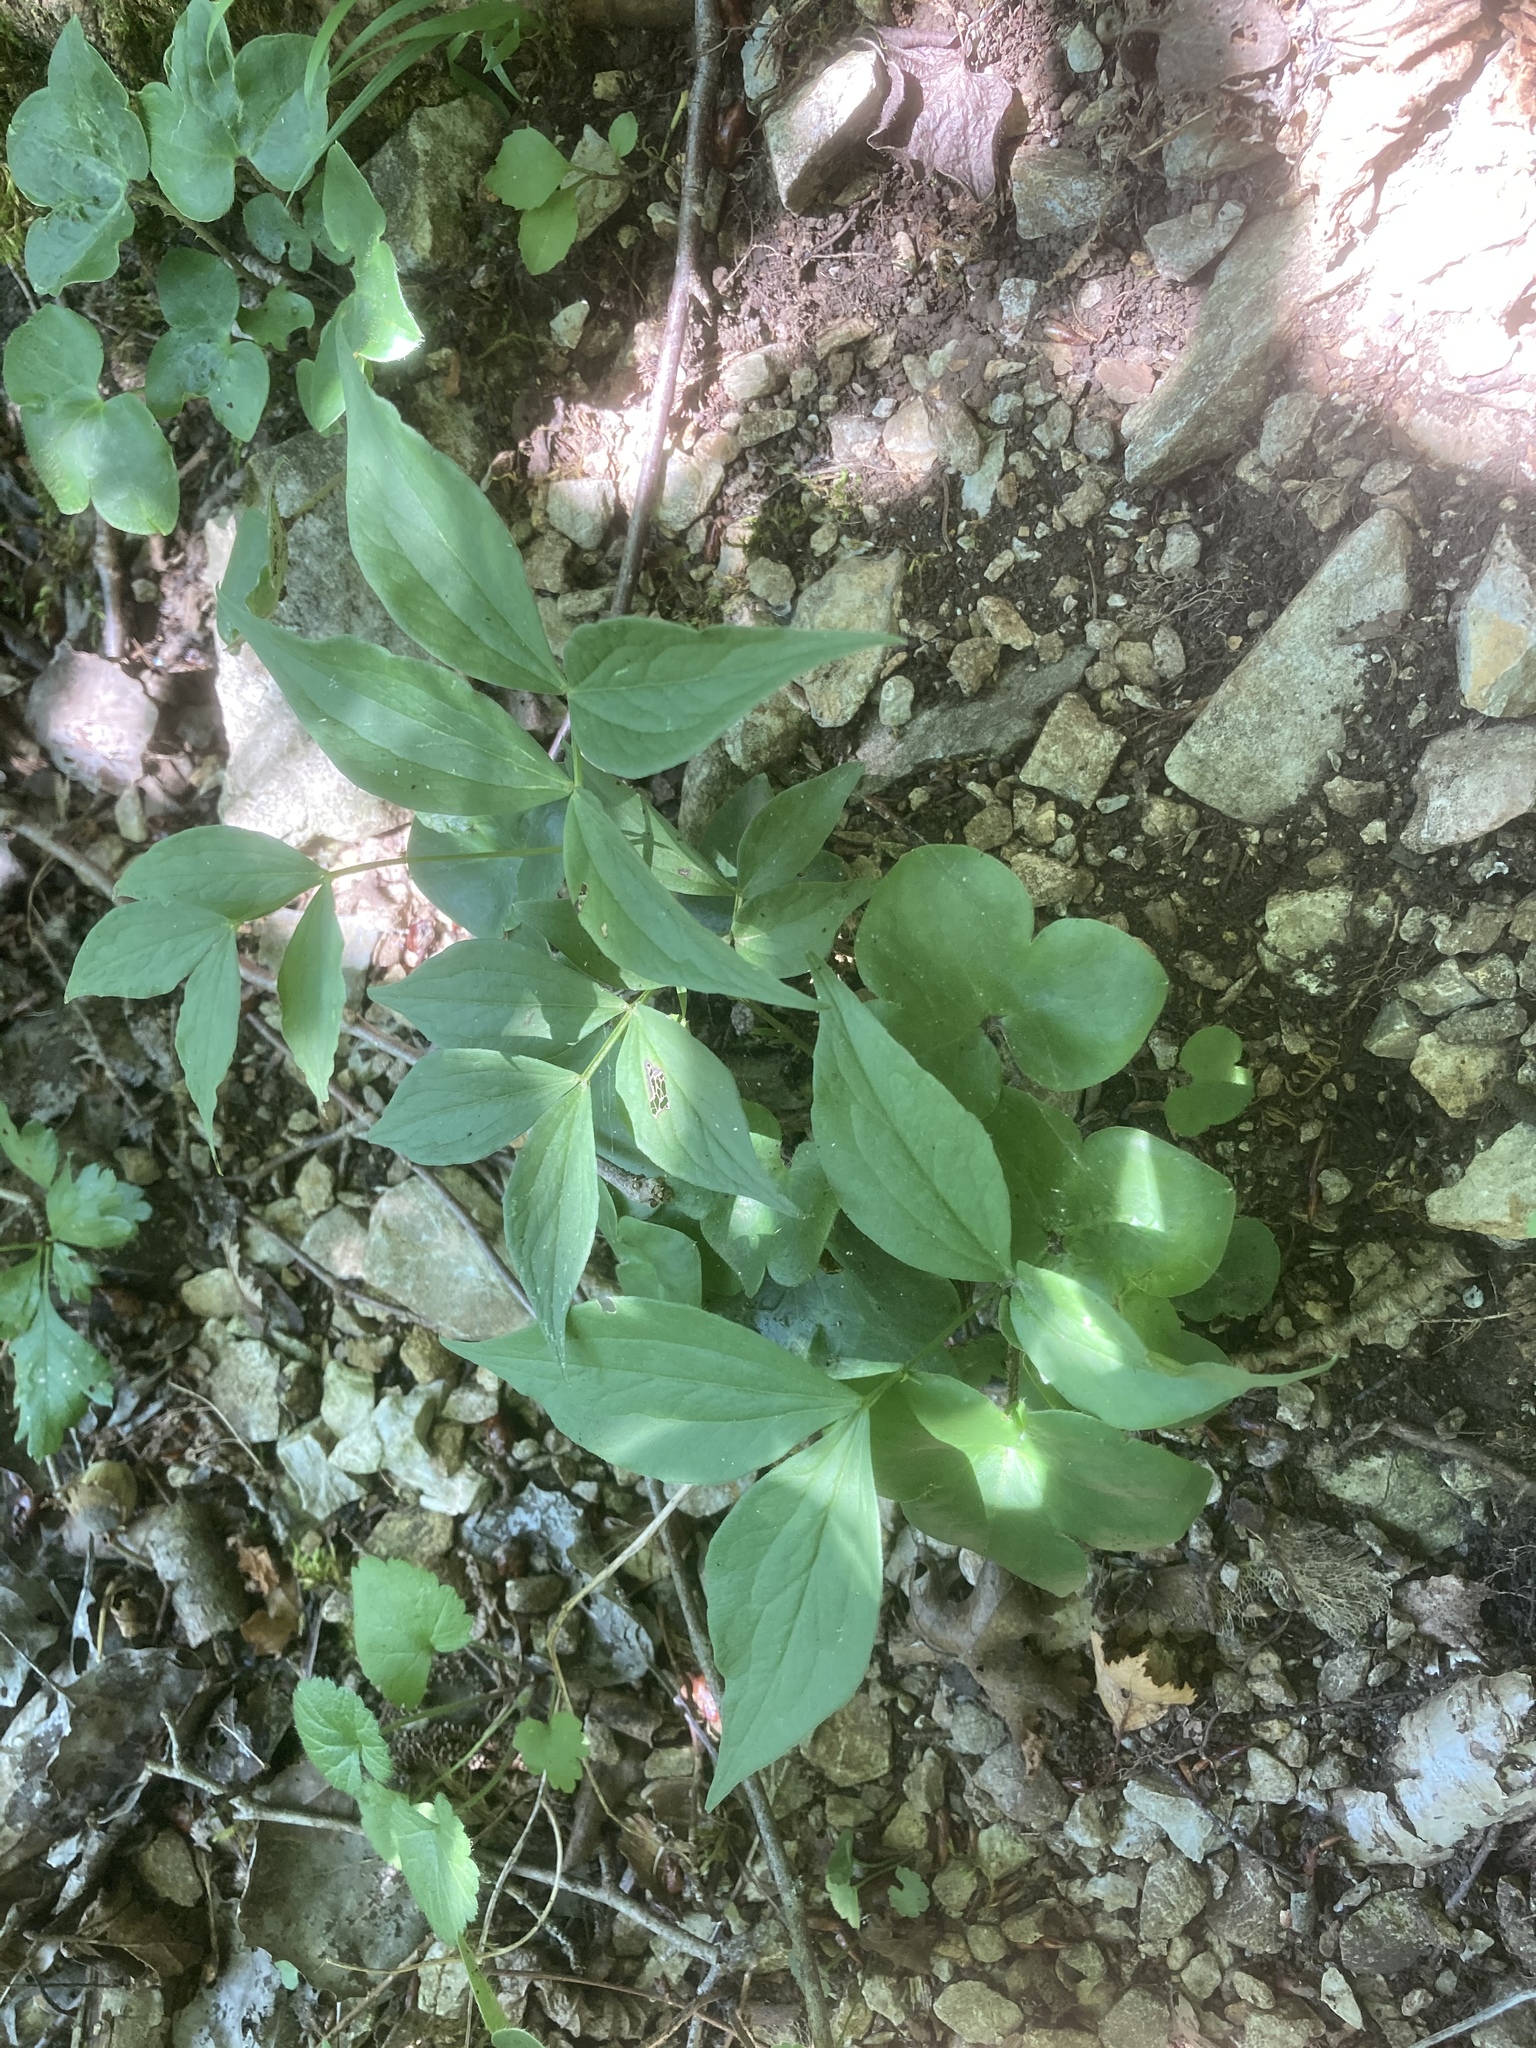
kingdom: Plantae
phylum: Tracheophyta
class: Magnoliopsida
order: Fabales
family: Fabaceae
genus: Lathyrus
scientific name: Lathyrus vernus
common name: Spring pea
